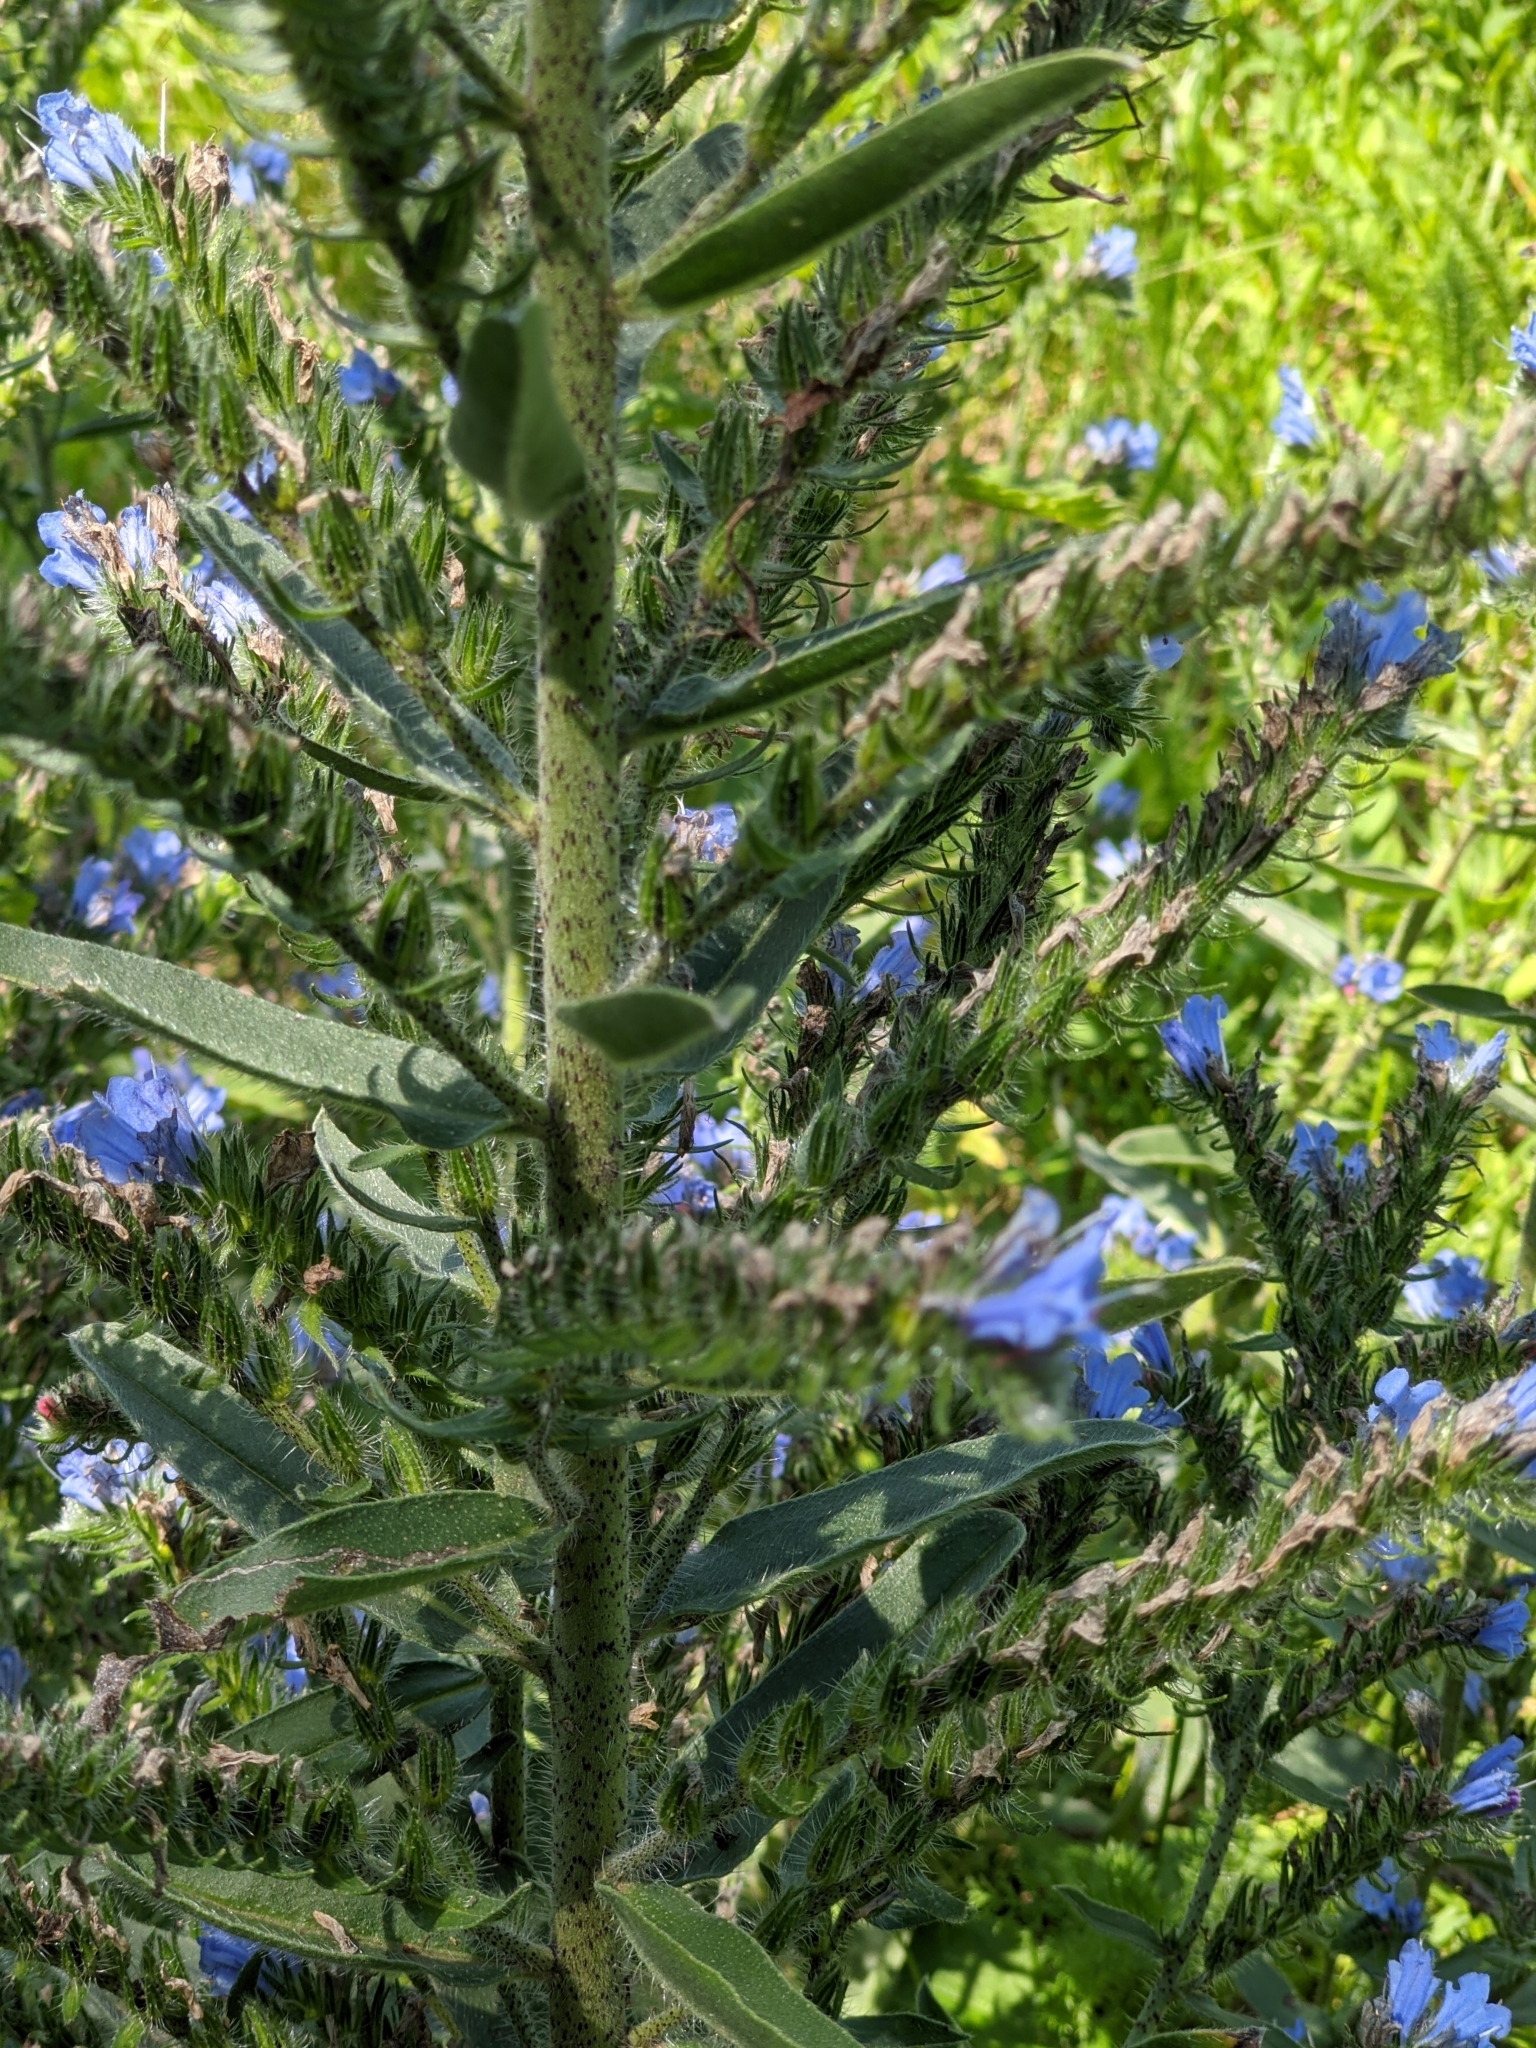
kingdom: Plantae
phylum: Tracheophyta
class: Magnoliopsida
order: Boraginales
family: Boraginaceae
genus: Echium
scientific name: Echium vulgare
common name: Common viper's bugloss
